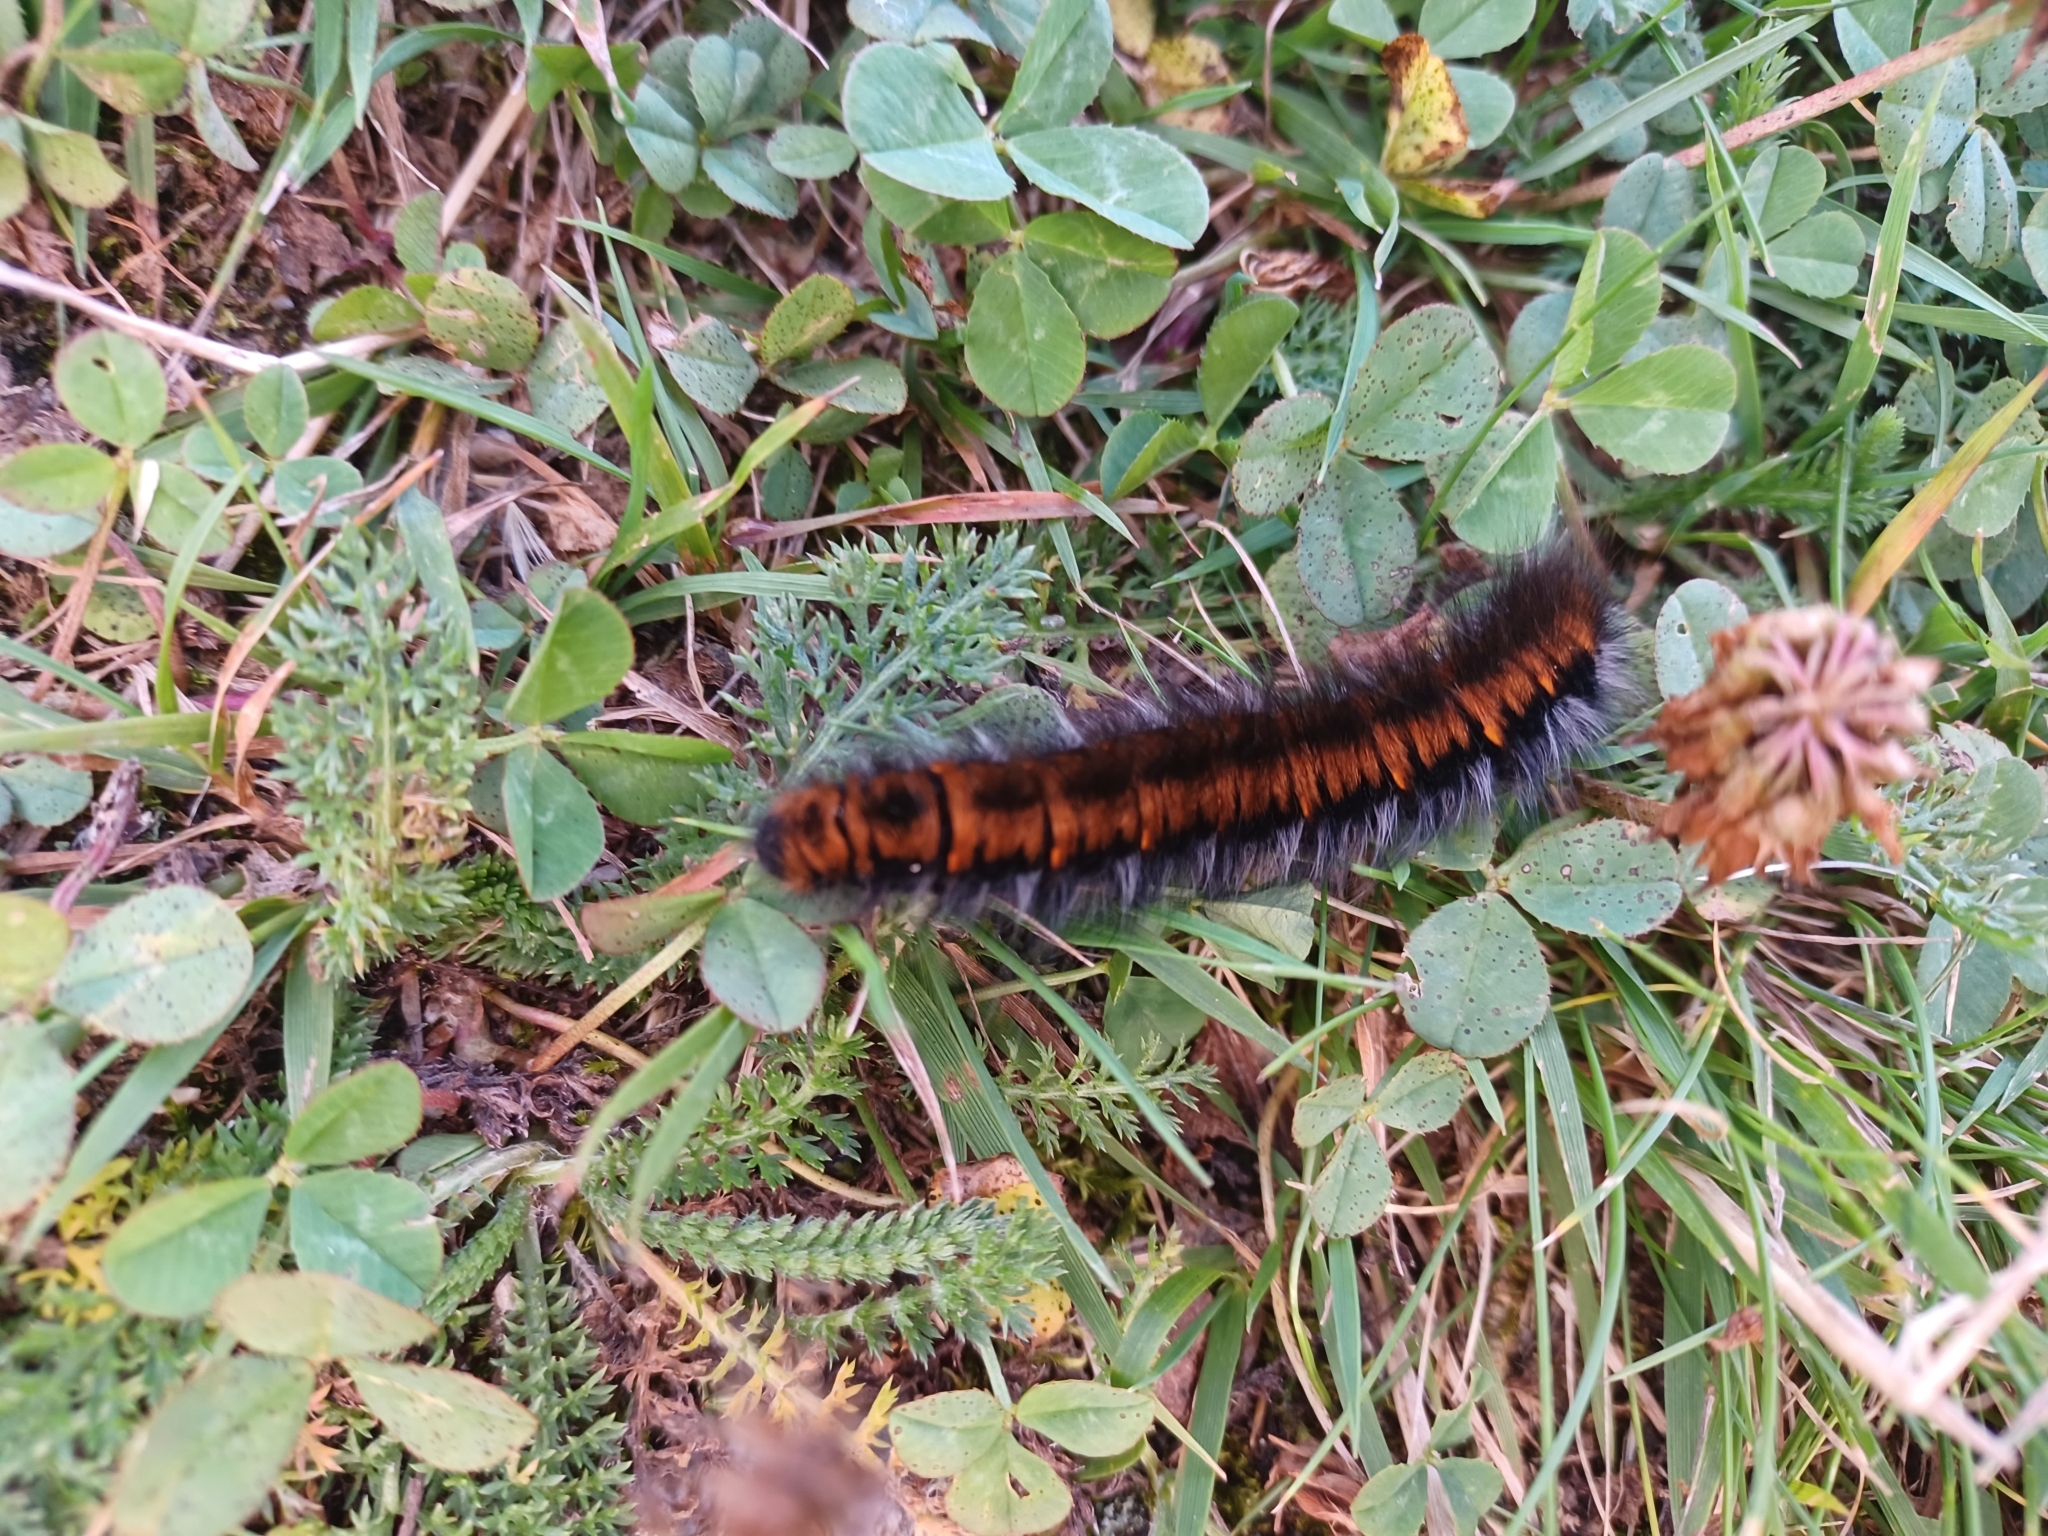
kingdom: Animalia
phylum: Arthropoda
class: Insecta
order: Lepidoptera
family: Lasiocampidae
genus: Macrothylacia
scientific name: Macrothylacia rubi
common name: Fox moth
